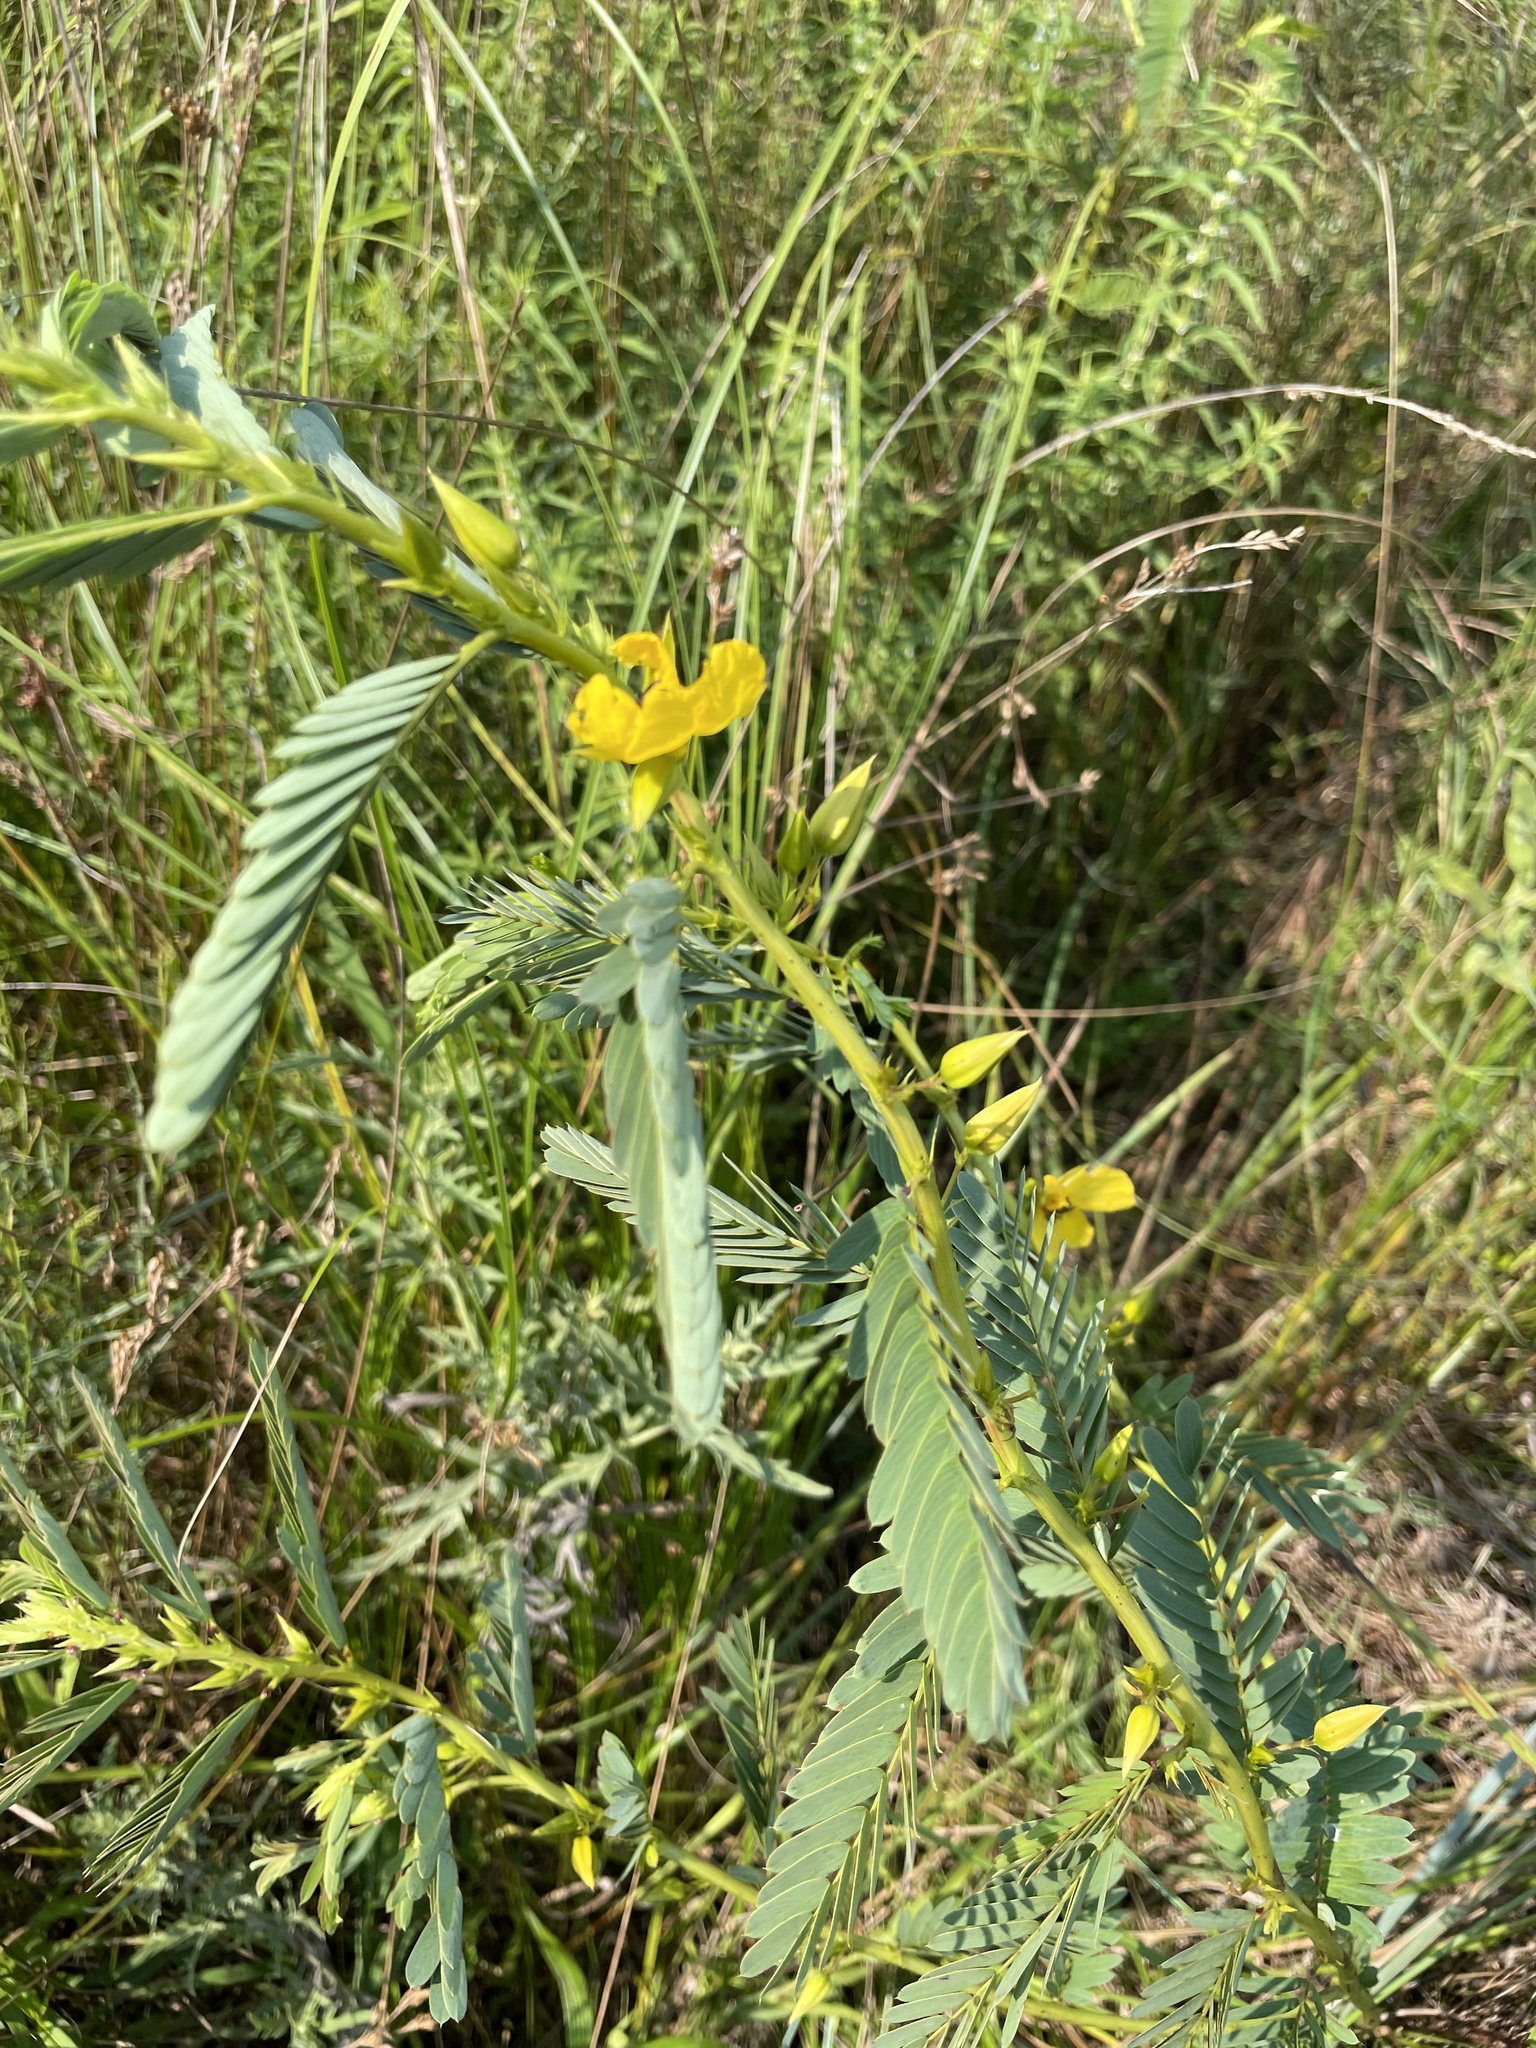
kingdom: Plantae
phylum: Tracheophyta
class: Magnoliopsida
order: Fabales
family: Fabaceae
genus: Chamaecrista
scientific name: Chamaecrista fasciculata
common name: Golden cassia
